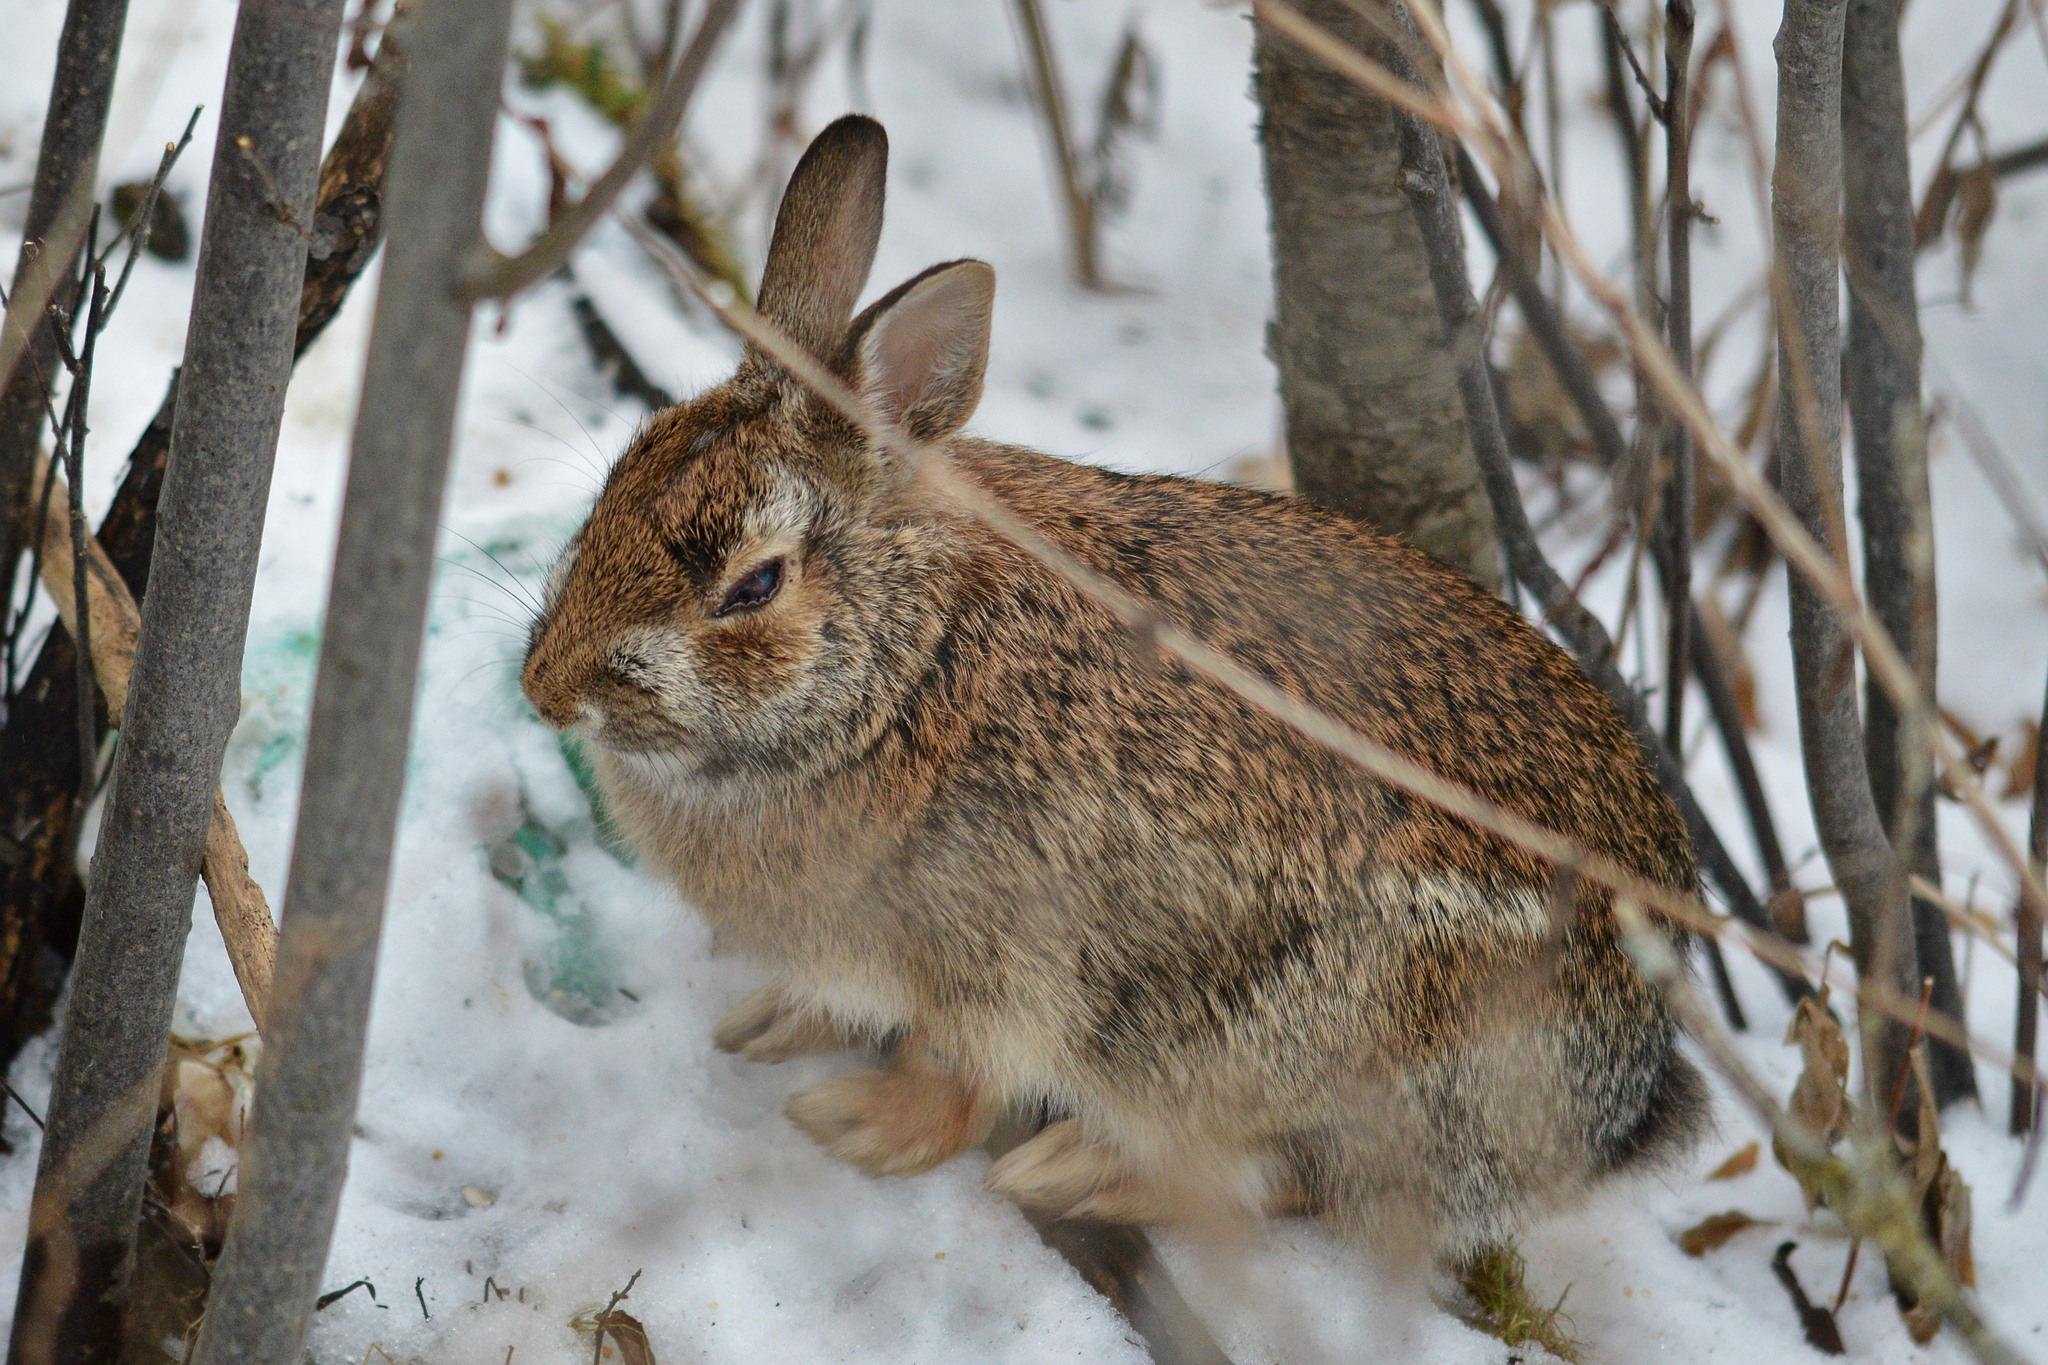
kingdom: Animalia
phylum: Chordata
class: Mammalia
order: Lagomorpha
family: Leporidae
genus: Sylvilagus
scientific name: Sylvilagus floridanus
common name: Eastern cottontail
